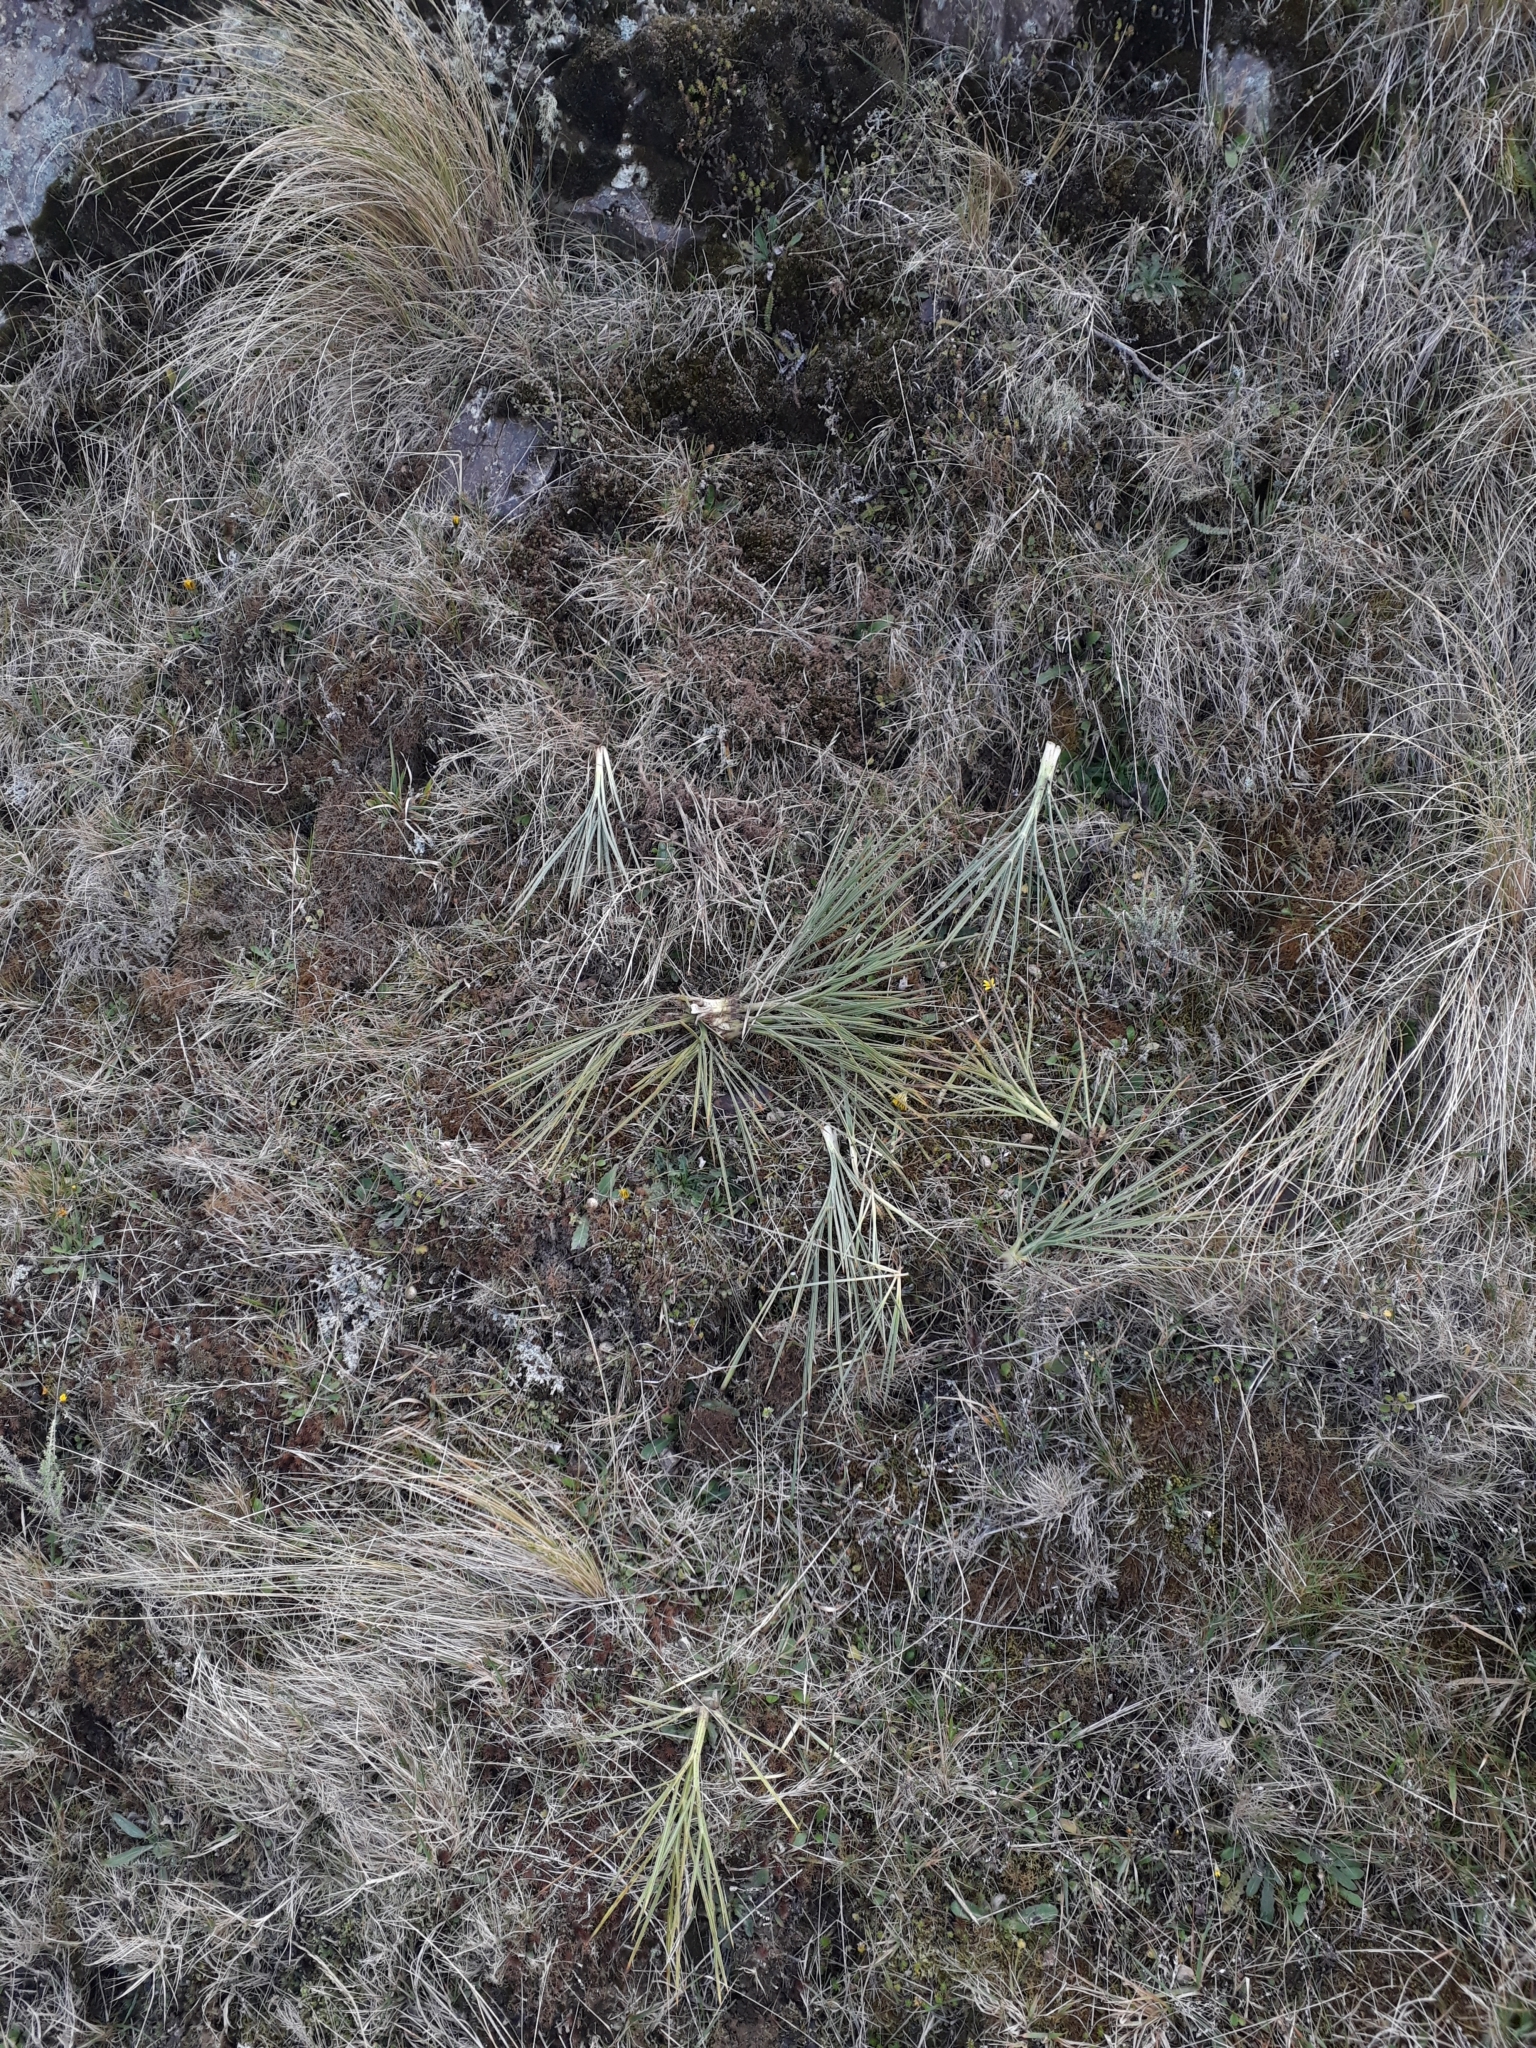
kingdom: Plantae
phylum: Tracheophyta
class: Magnoliopsida
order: Apiales
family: Apiaceae
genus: Aciphylla
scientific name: Aciphylla squarrosa
